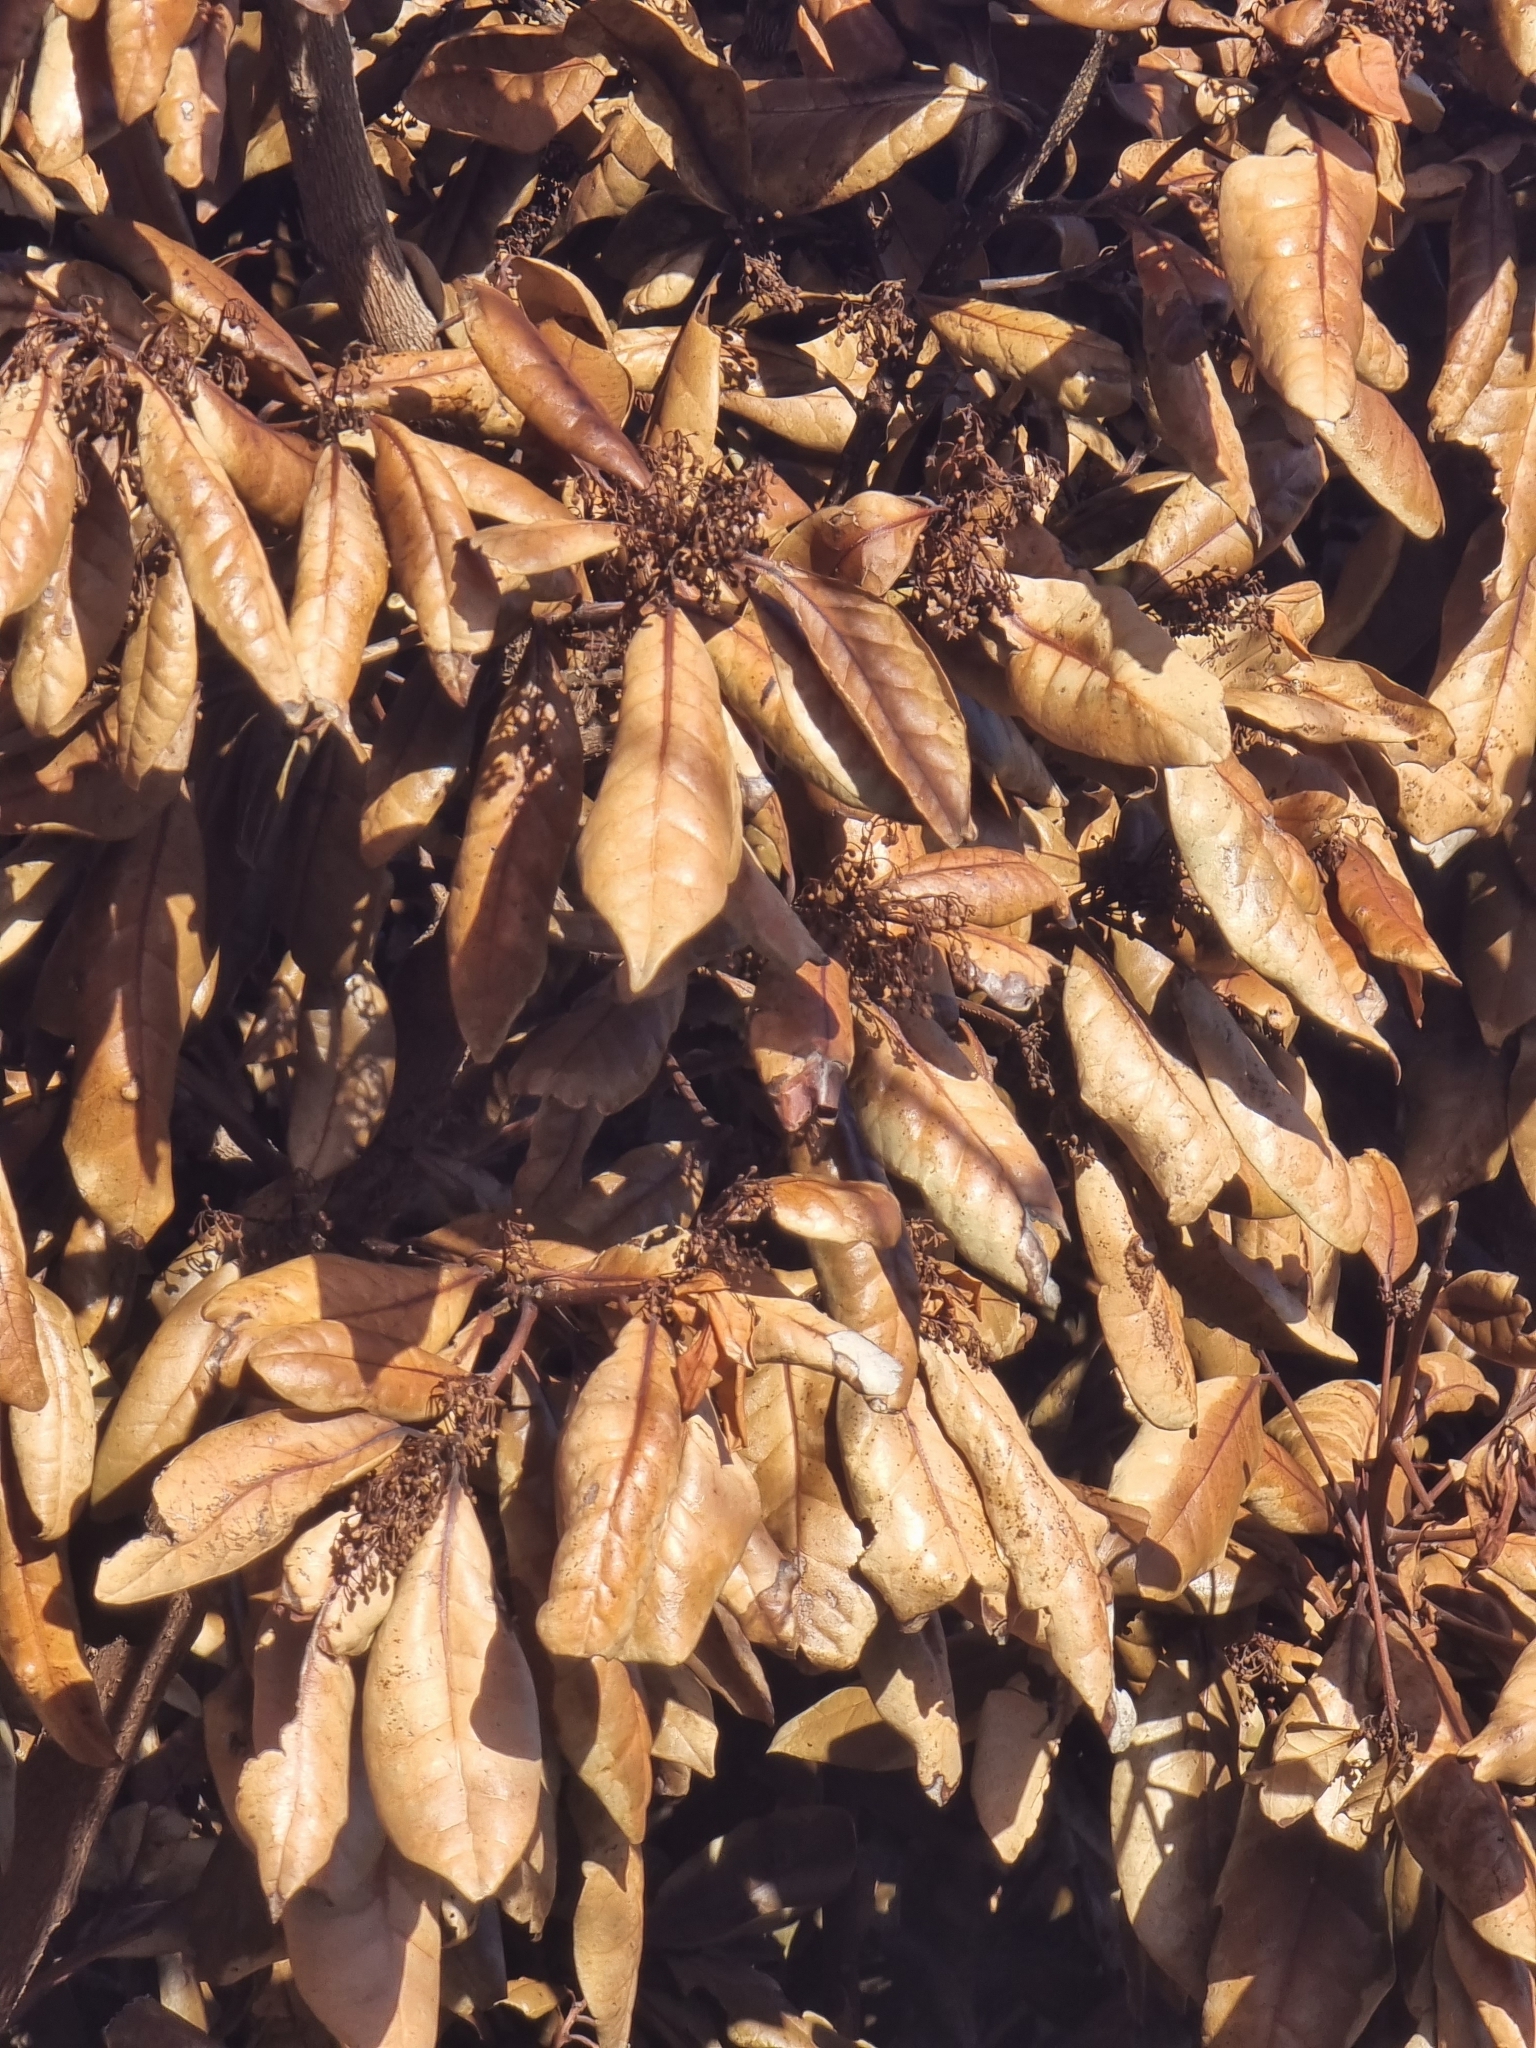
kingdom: Plantae
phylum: Tracheophyta
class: Magnoliopsida
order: Laurales
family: Lauraceae
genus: Apollonias
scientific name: Apollonias barbujana
